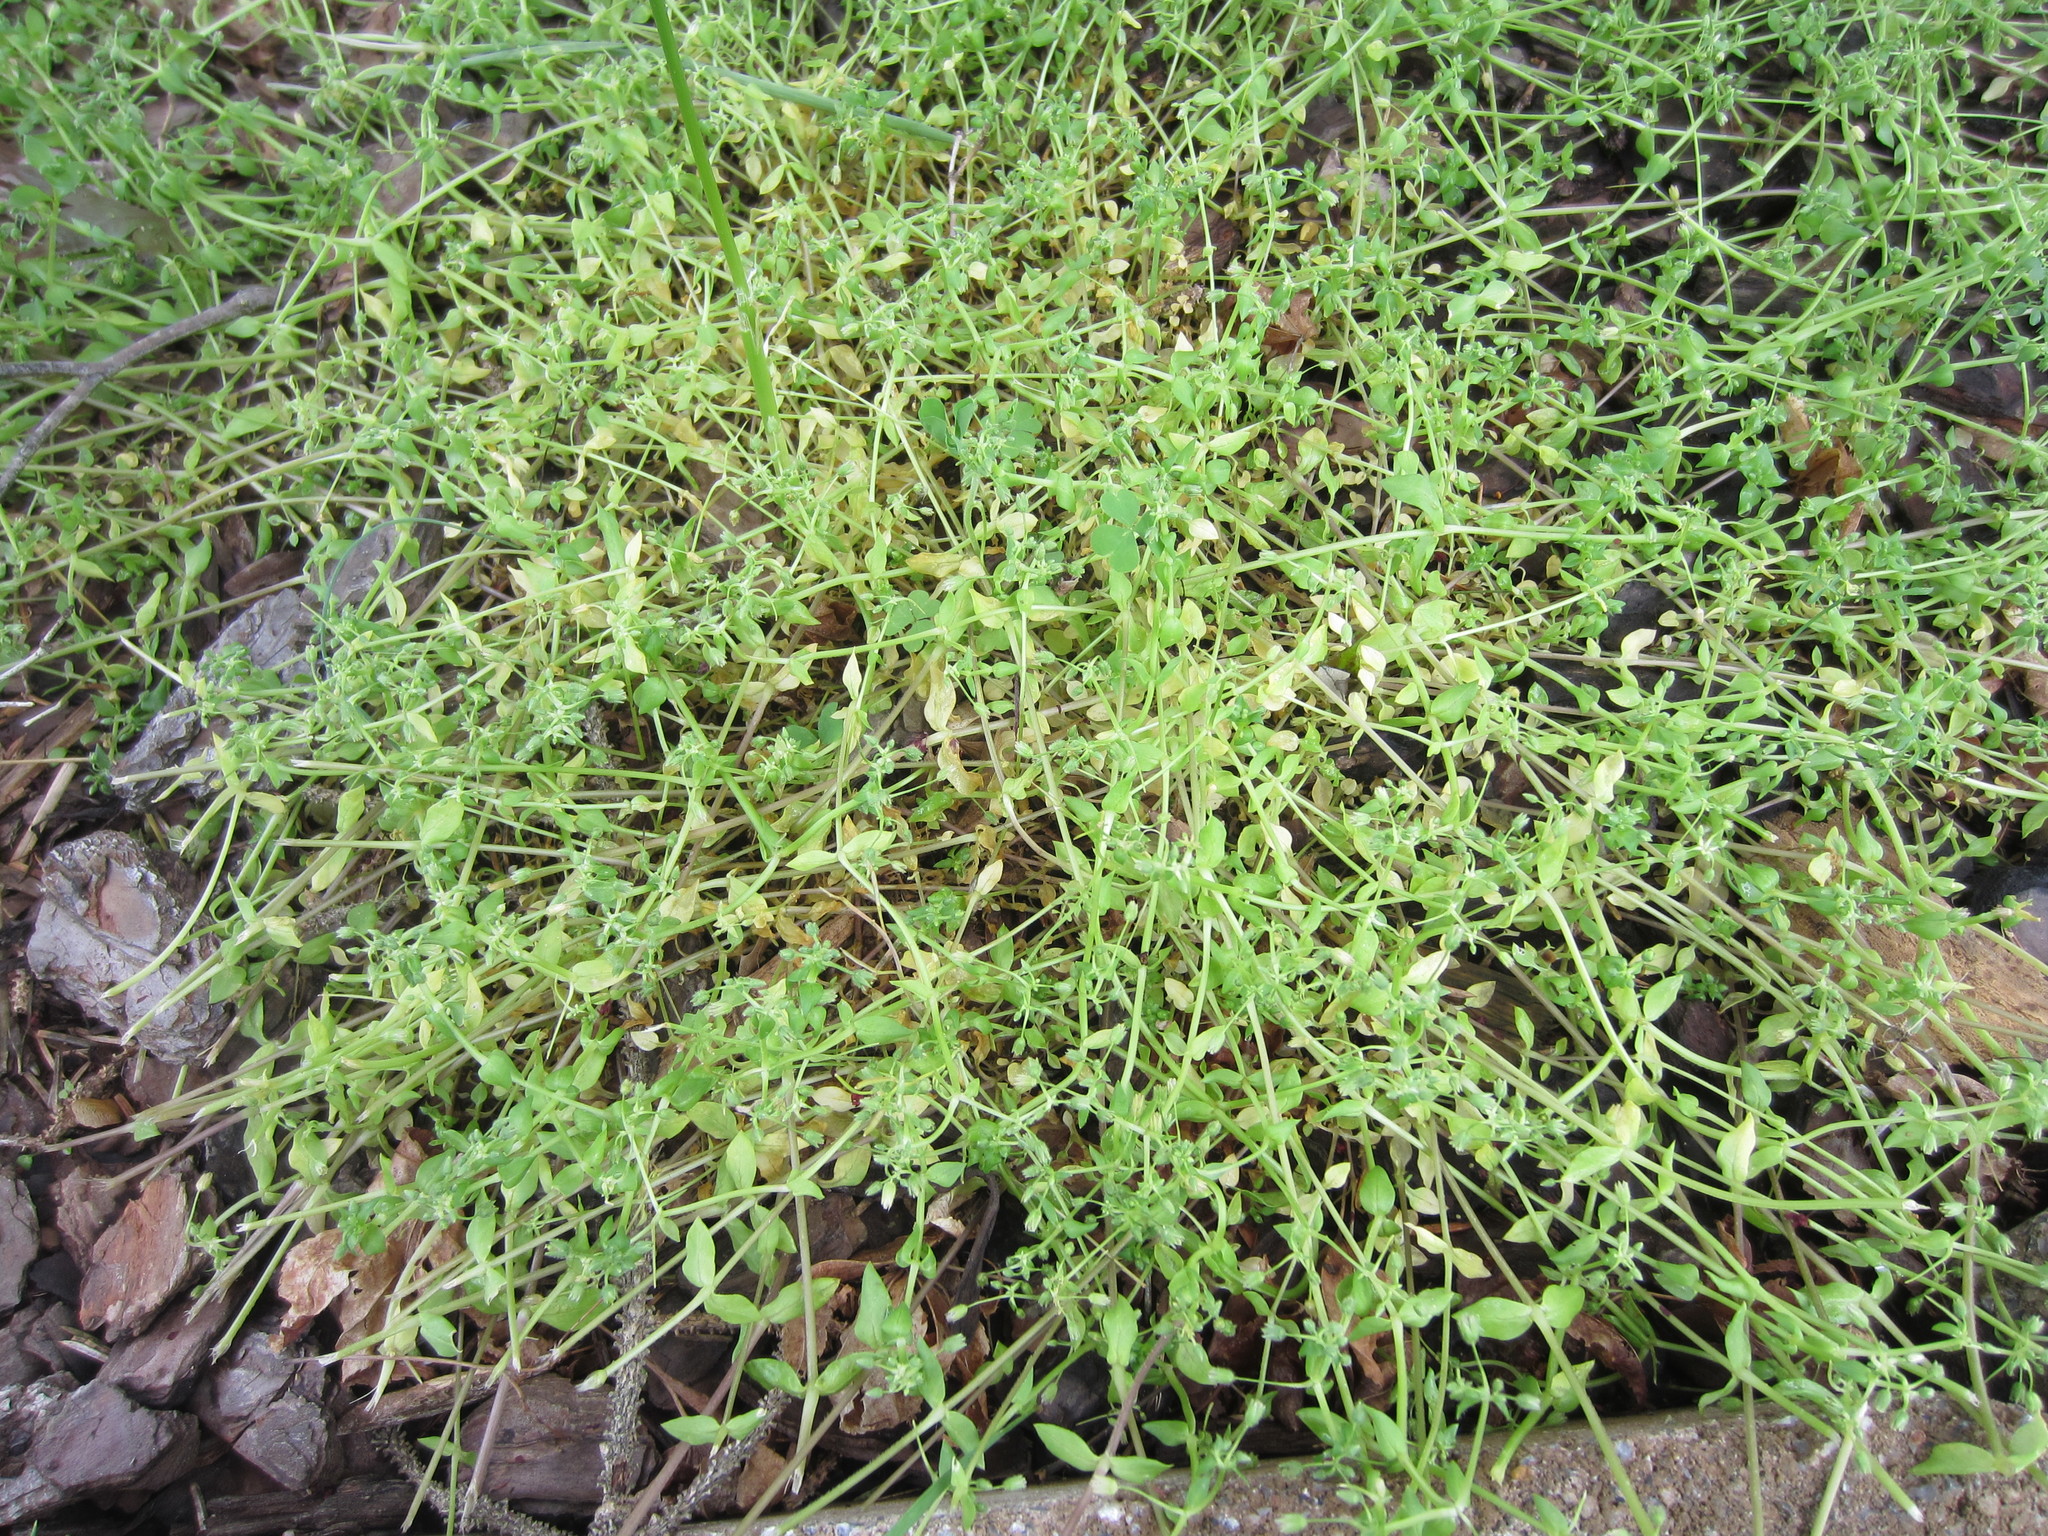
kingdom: Plantae
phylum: Tracheophyta
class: Magnoliopsida
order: Caryophyllales
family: Caryophyllaceae
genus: Stellaria
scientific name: Stellaria media
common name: Common chickweed
